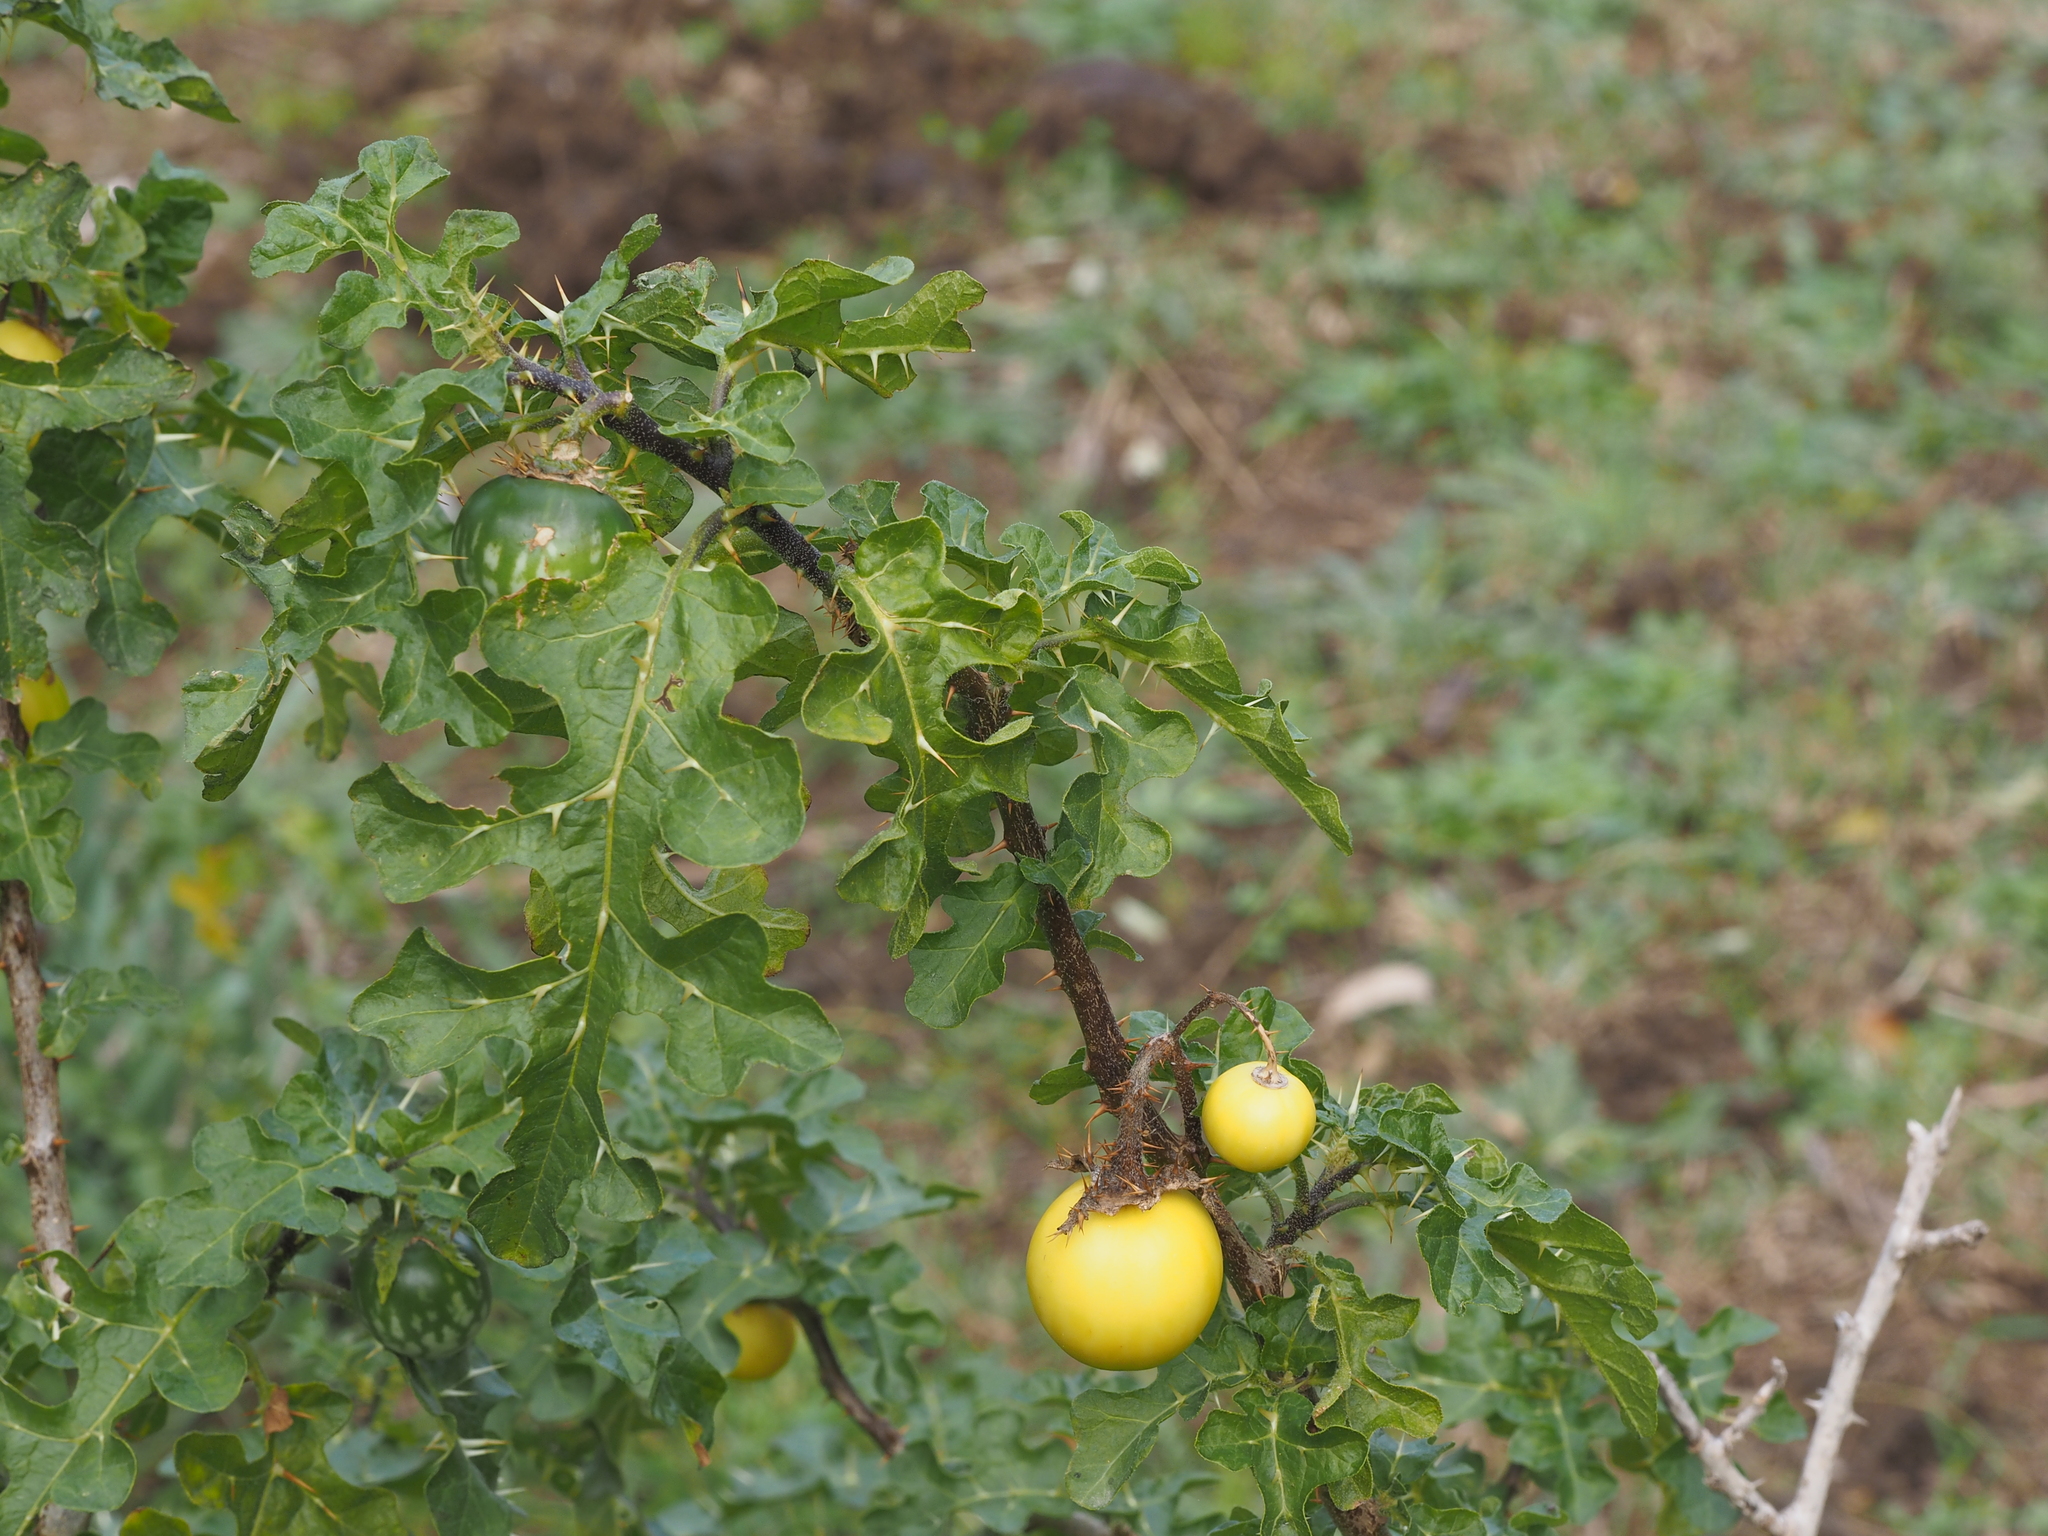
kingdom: Plantae
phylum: Tracheophyta
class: Magnoliopsida
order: Solanales
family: Solanaceae
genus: Solanum
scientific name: Solanum linnaeanum
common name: Nightshade
